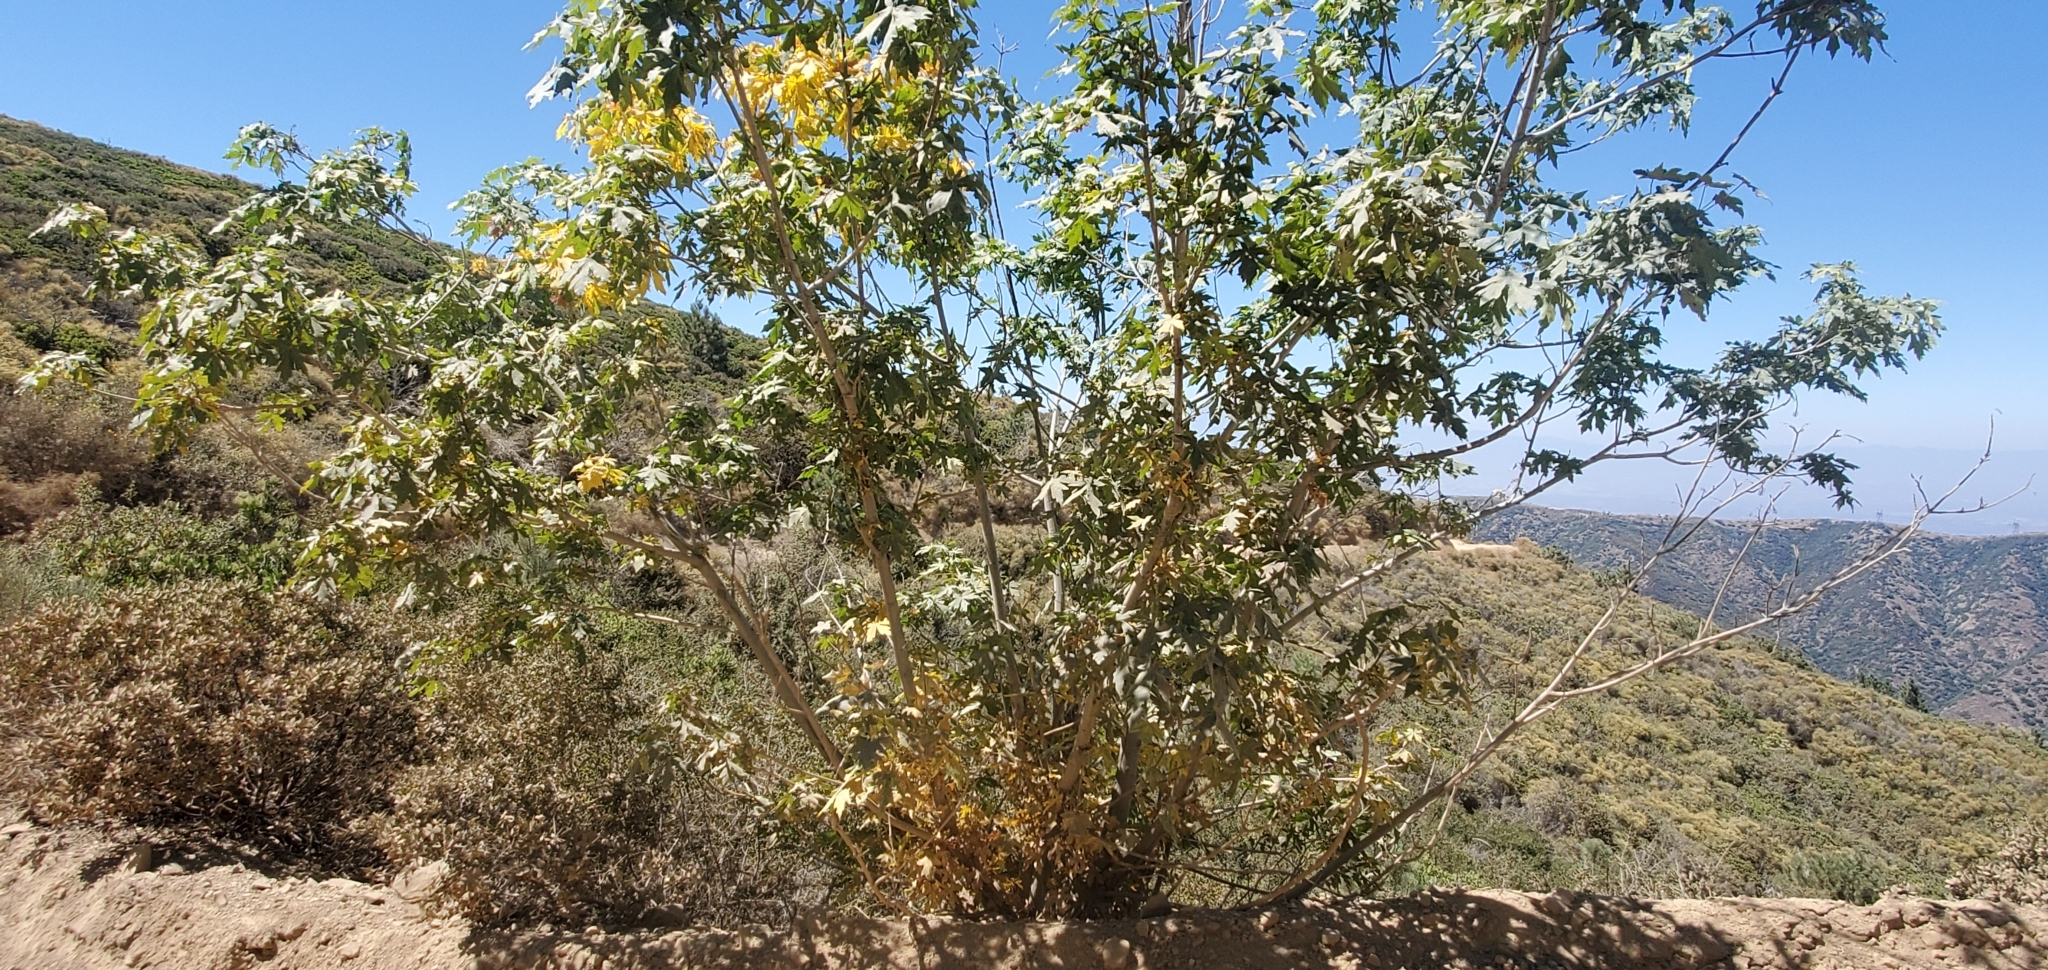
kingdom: Plantae
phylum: Tracheophyta
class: Magnoliopsida
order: Sapindales
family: Sapindaceae
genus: Acer
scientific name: Acer macrophyllum
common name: Oregon maple
